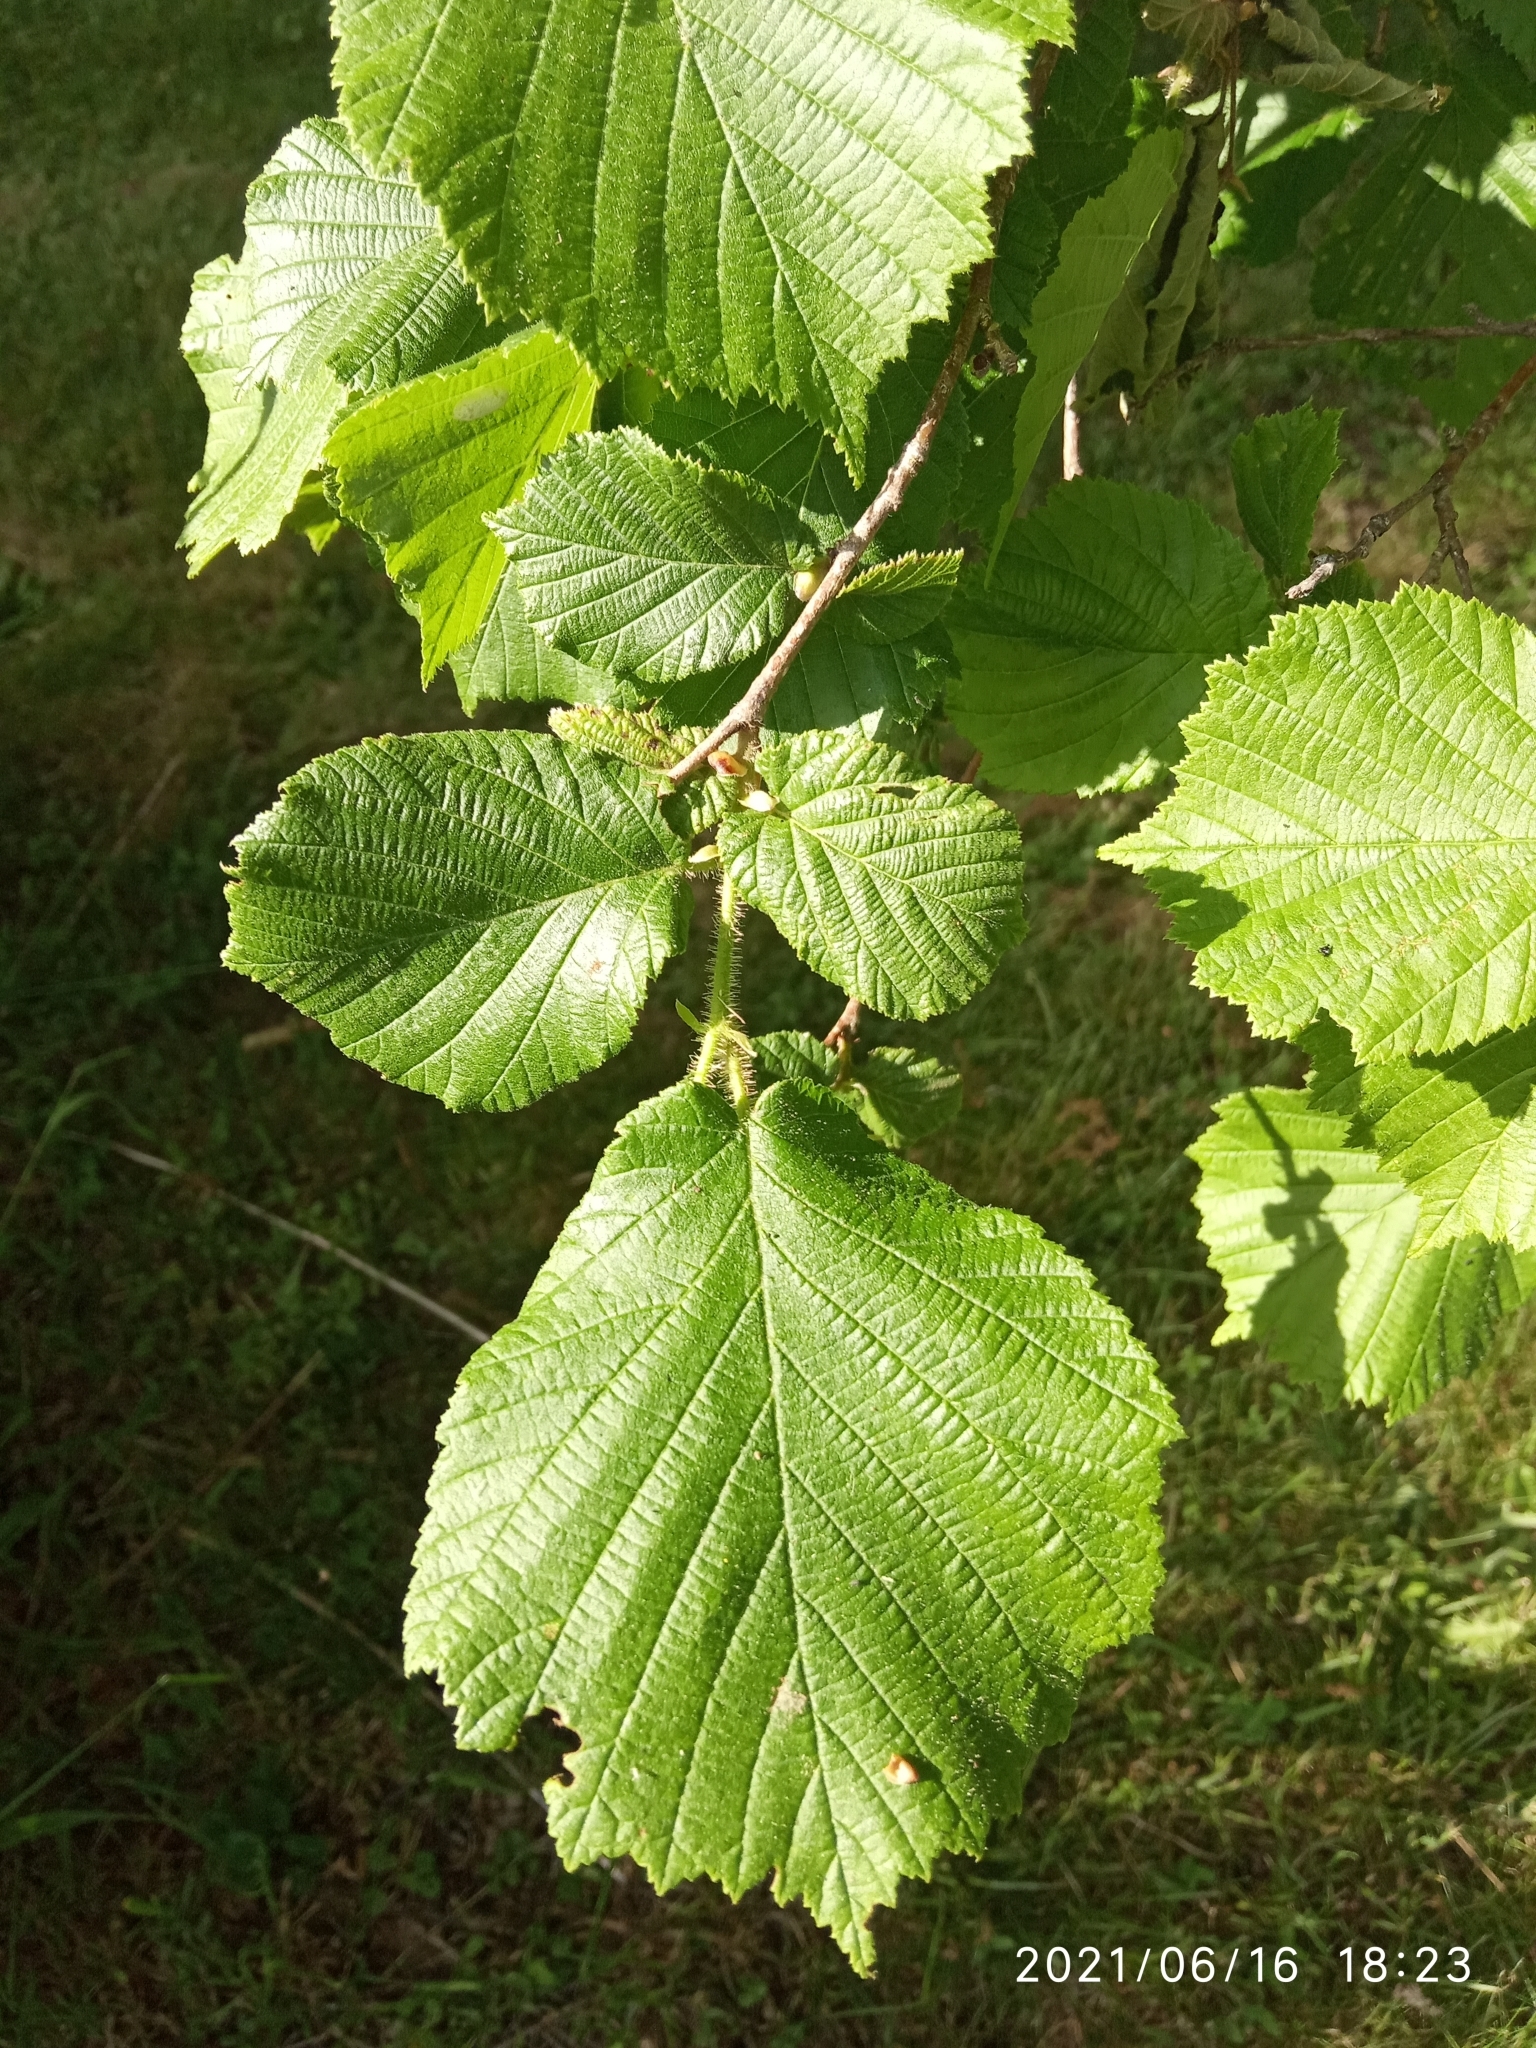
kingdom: Plantae
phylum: Tracheophyta
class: Magnoliopsida
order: Fagales
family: Betulaceae
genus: Corylus
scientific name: Corylus avellana
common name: European hazel
